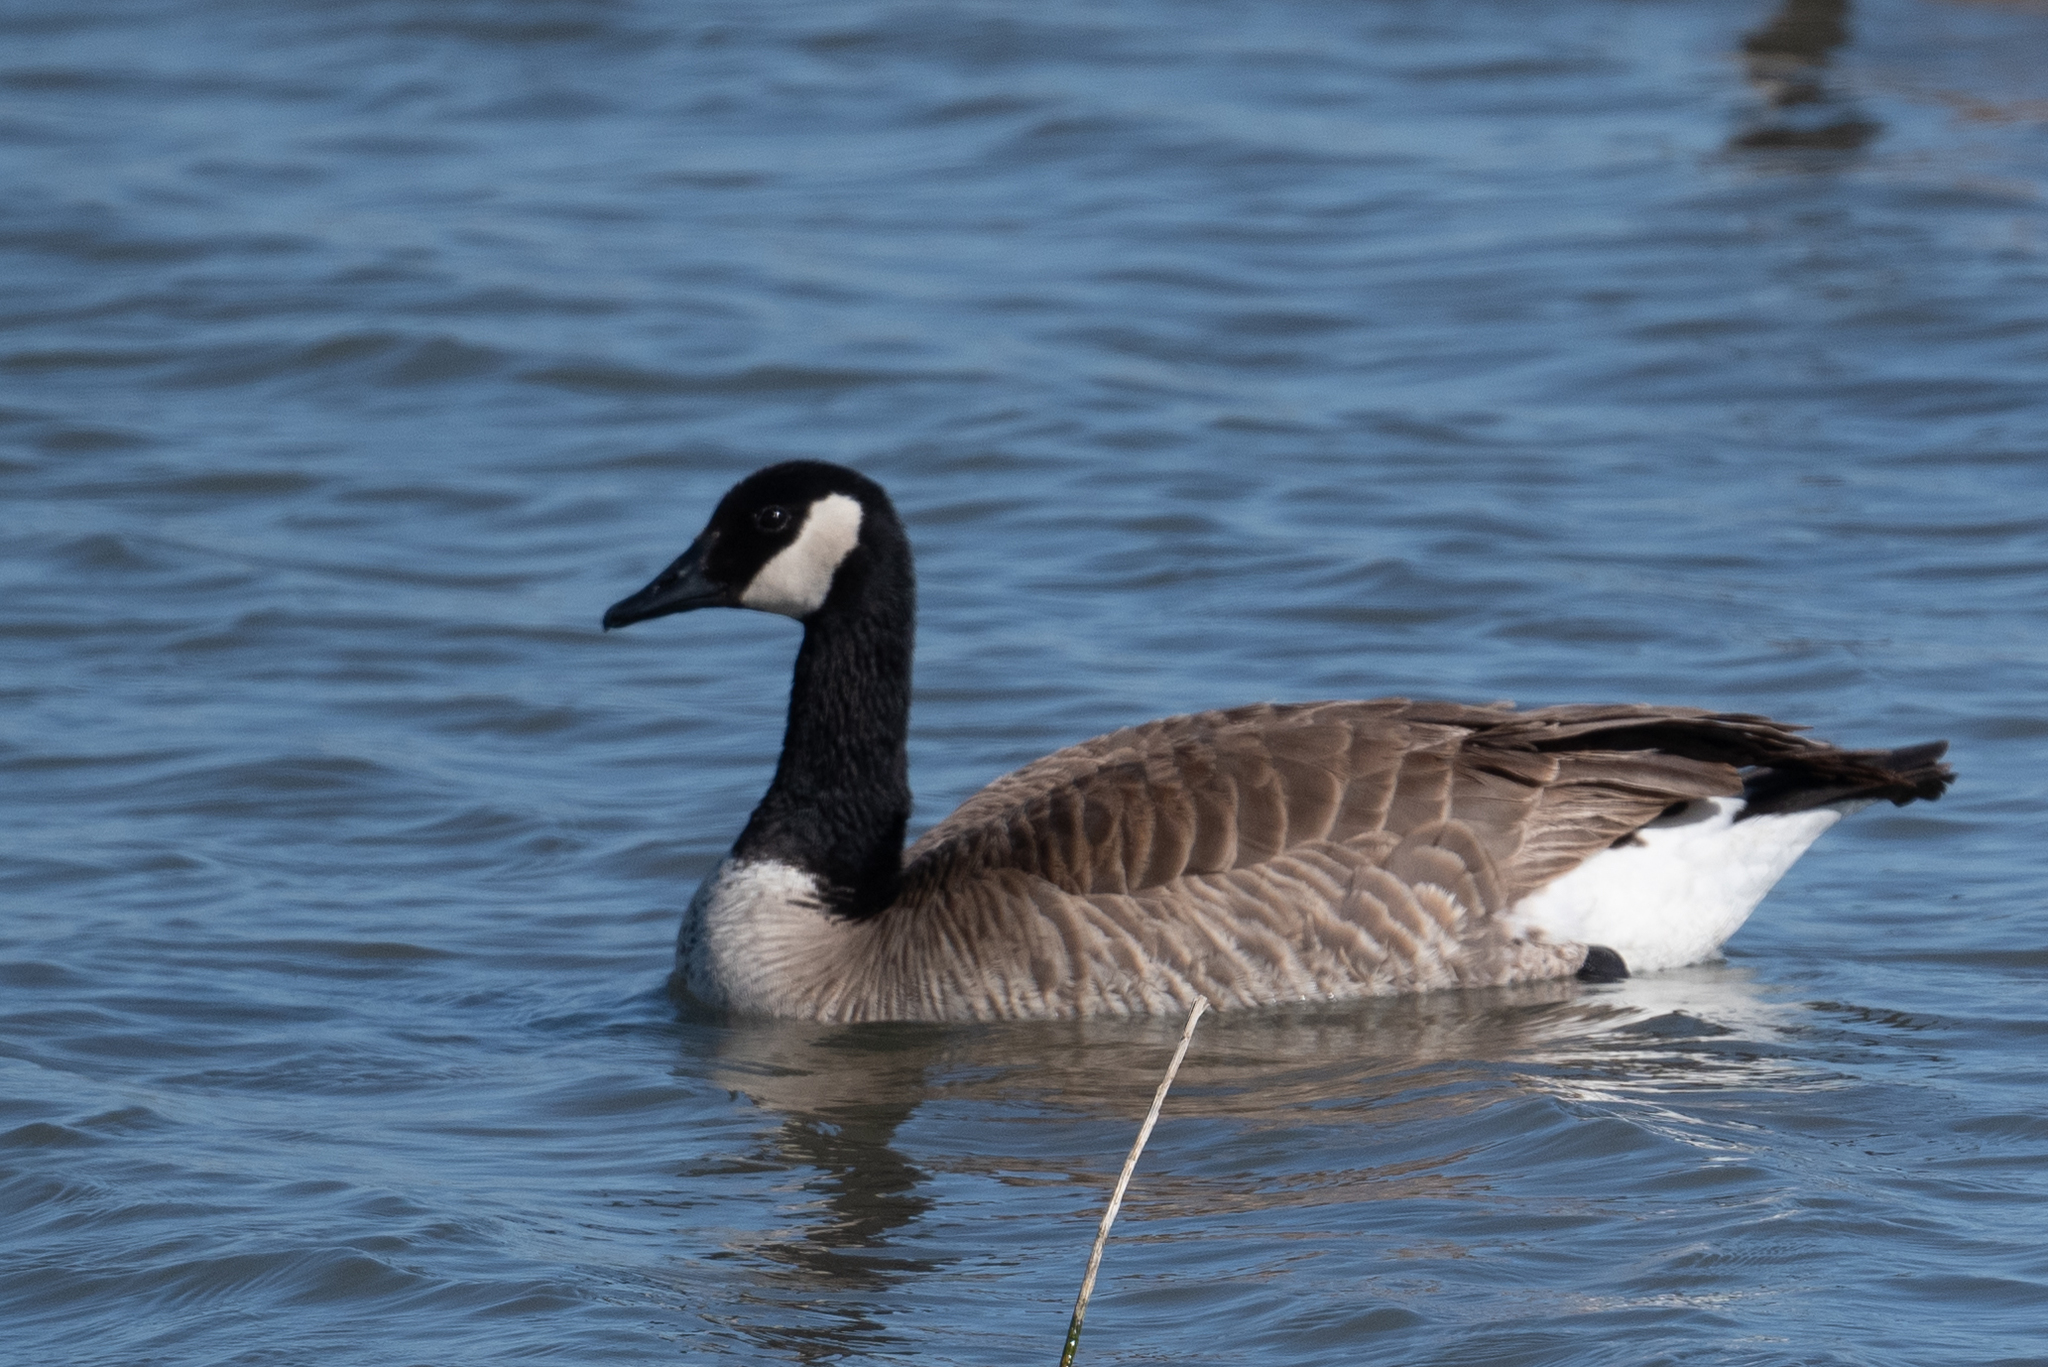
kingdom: Animalia
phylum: Chordata
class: Aves
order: Anseriformes
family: Anatidae
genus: Branta
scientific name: Branta canadensis
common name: Canada goose
